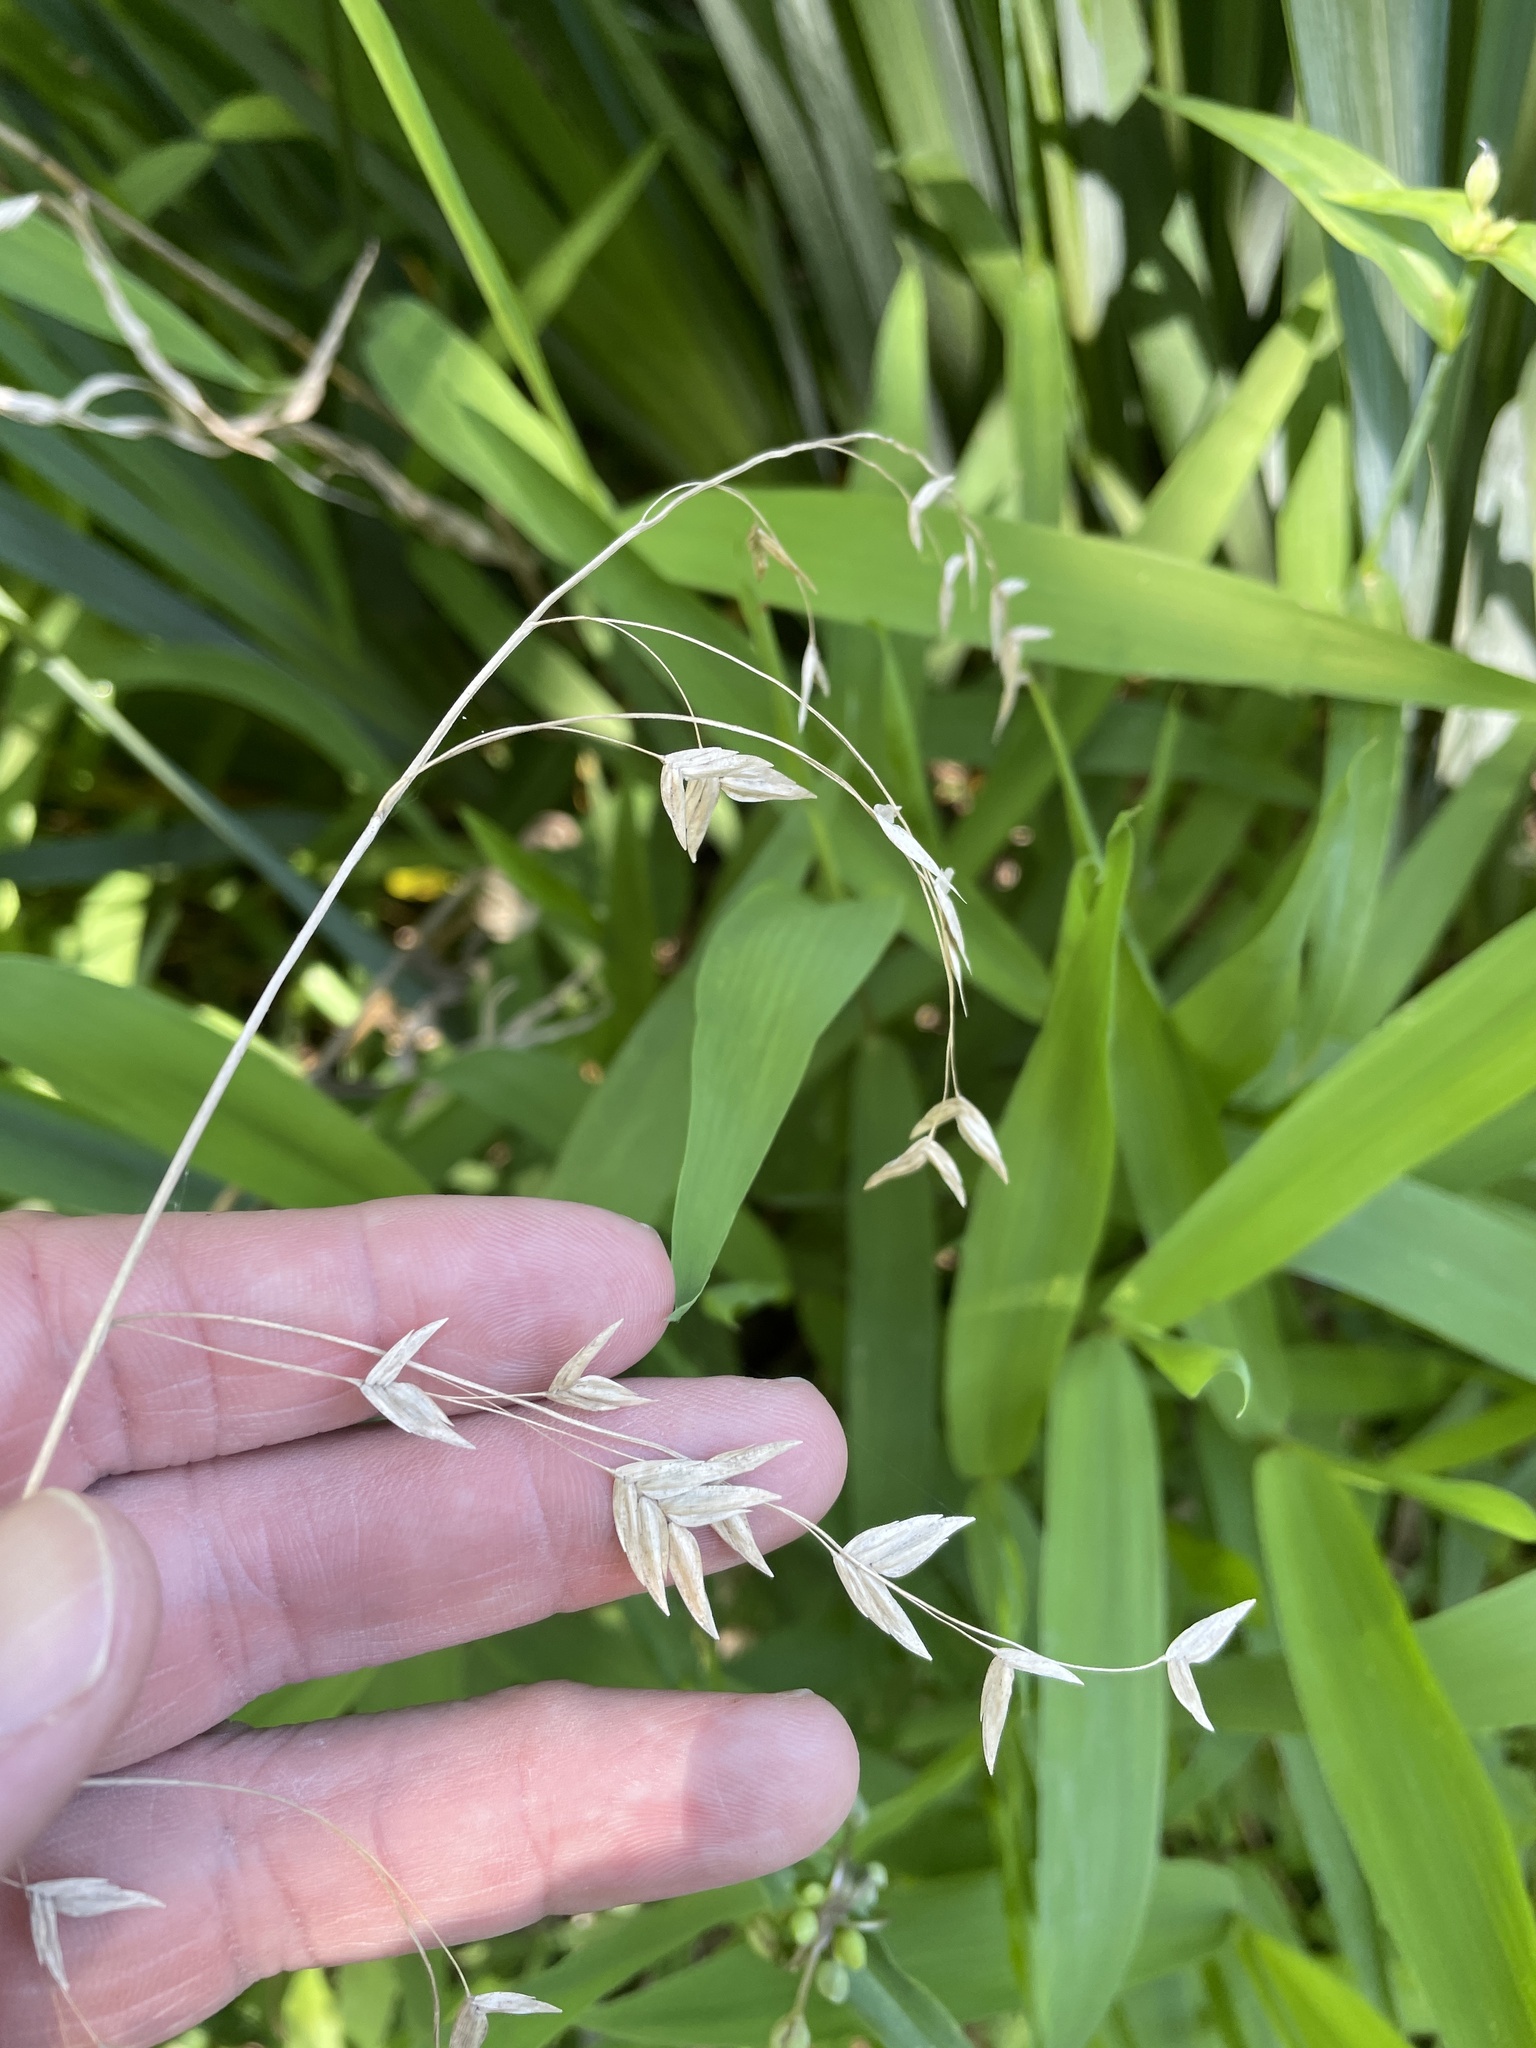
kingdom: Plantae
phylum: Tracheophyta
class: Liliopsida
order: Poales
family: Poaceae
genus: Chasmanthium
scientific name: Chasmanthium latifolium
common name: Broad-leaved chasmanthium
